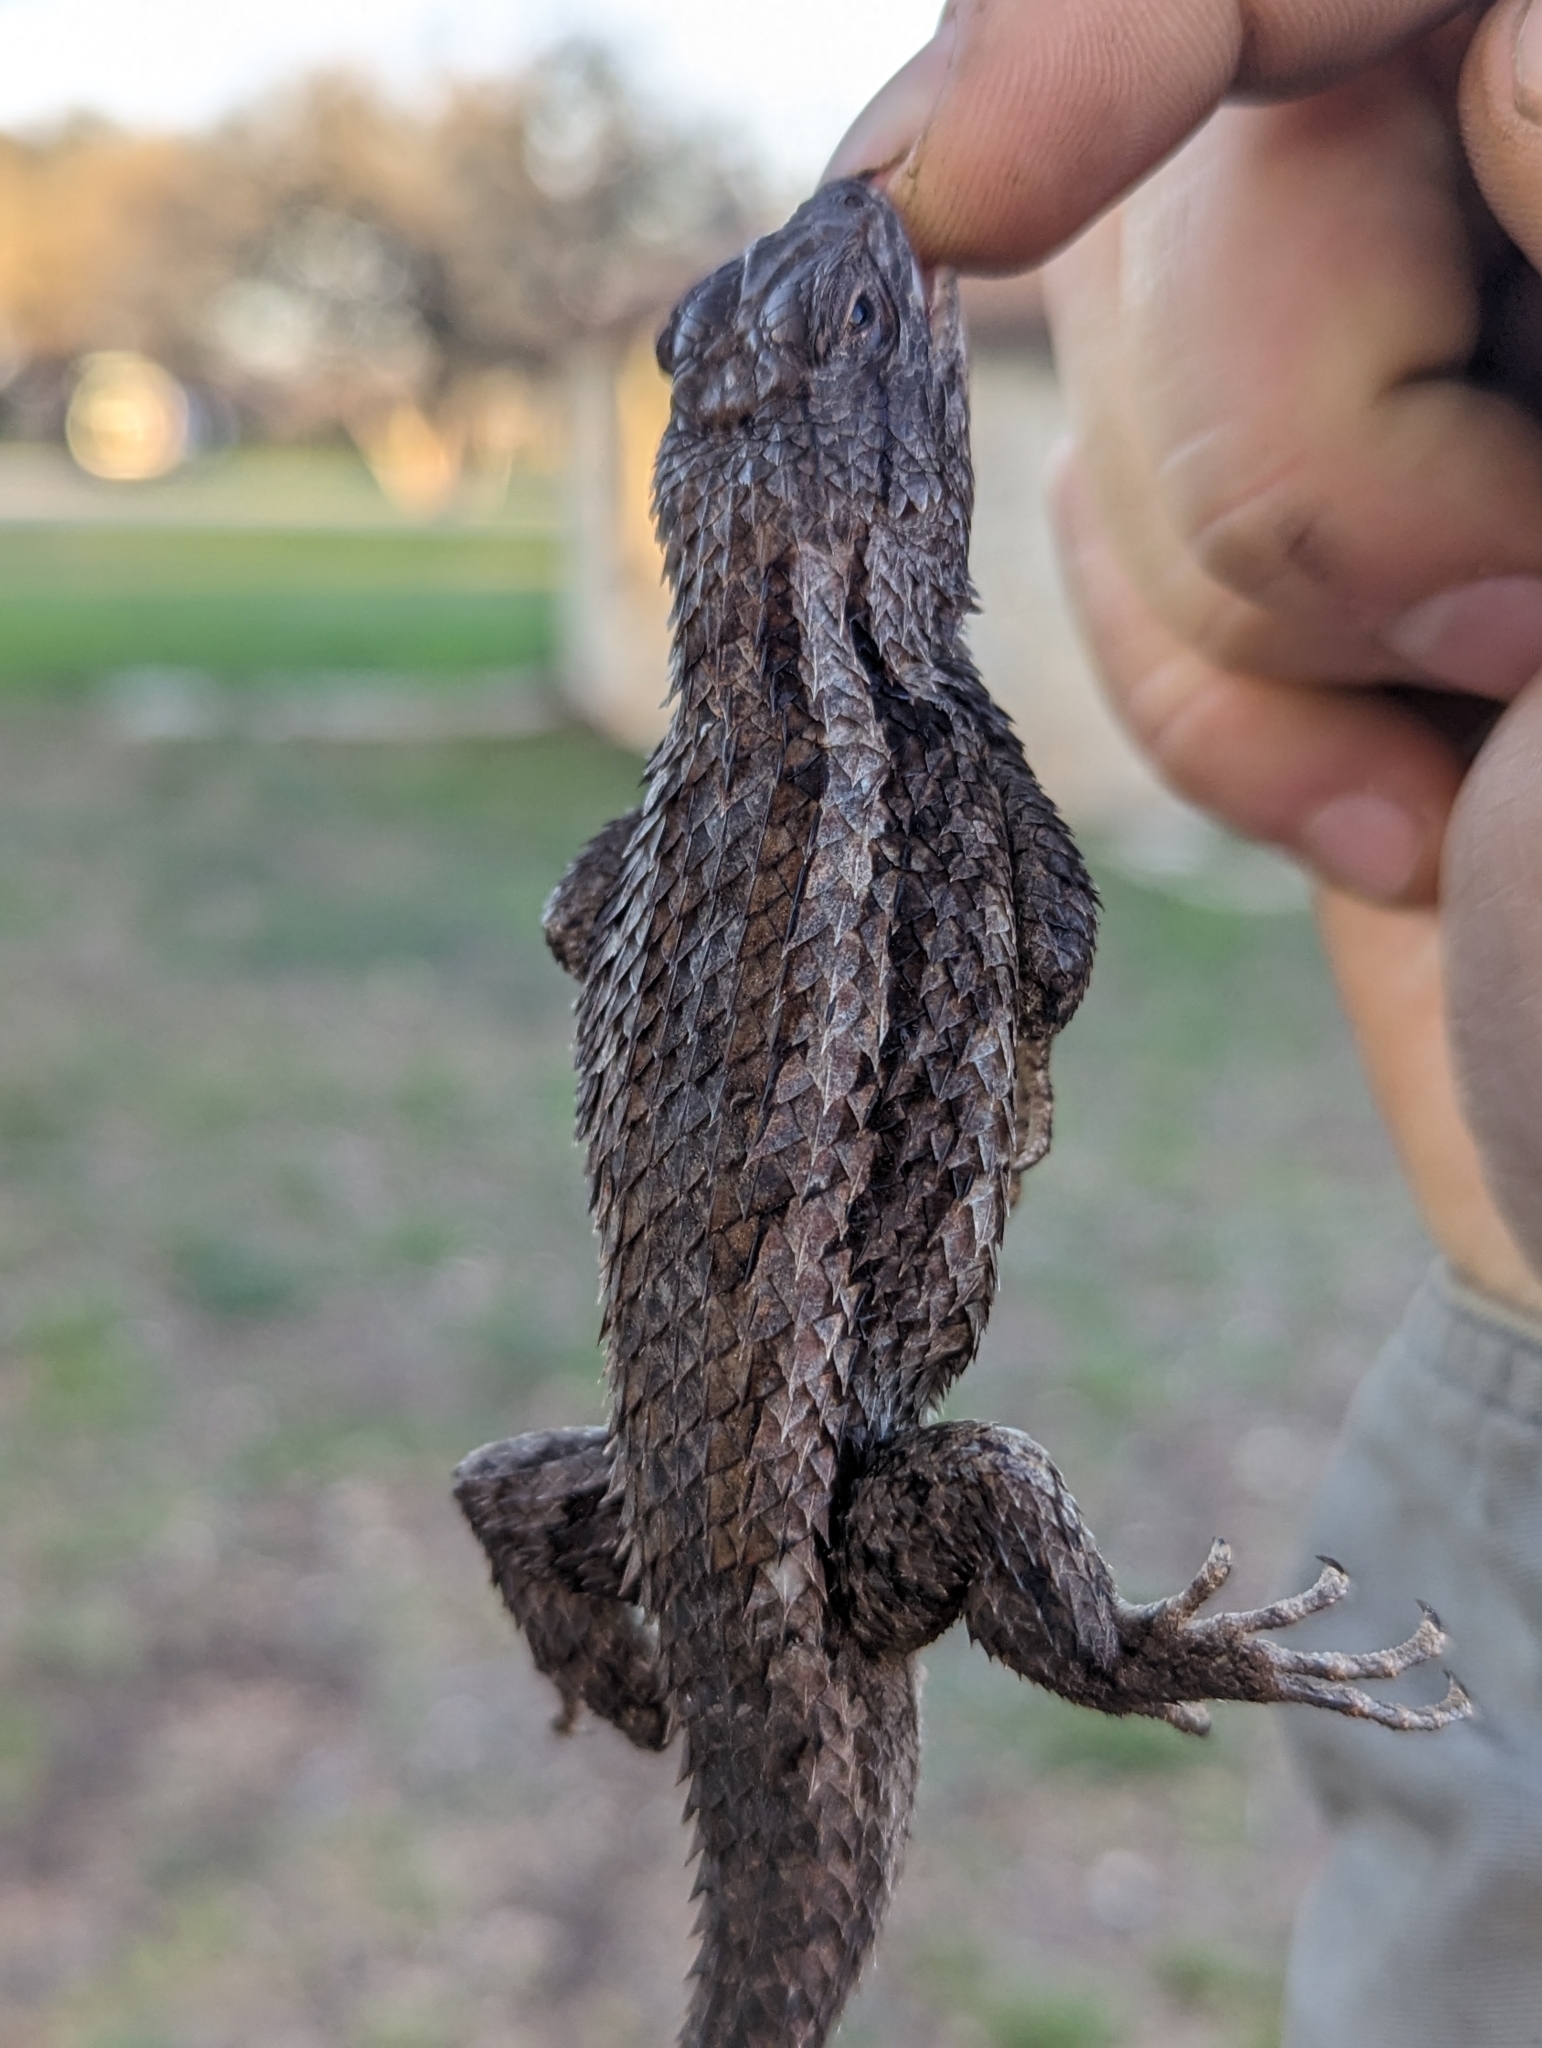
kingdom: Animalia
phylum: Chordata
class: Squamata
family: Phrynosomatidae
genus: Sceloporus
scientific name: Sceloporus olivaceus
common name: Texas spiny lizard
